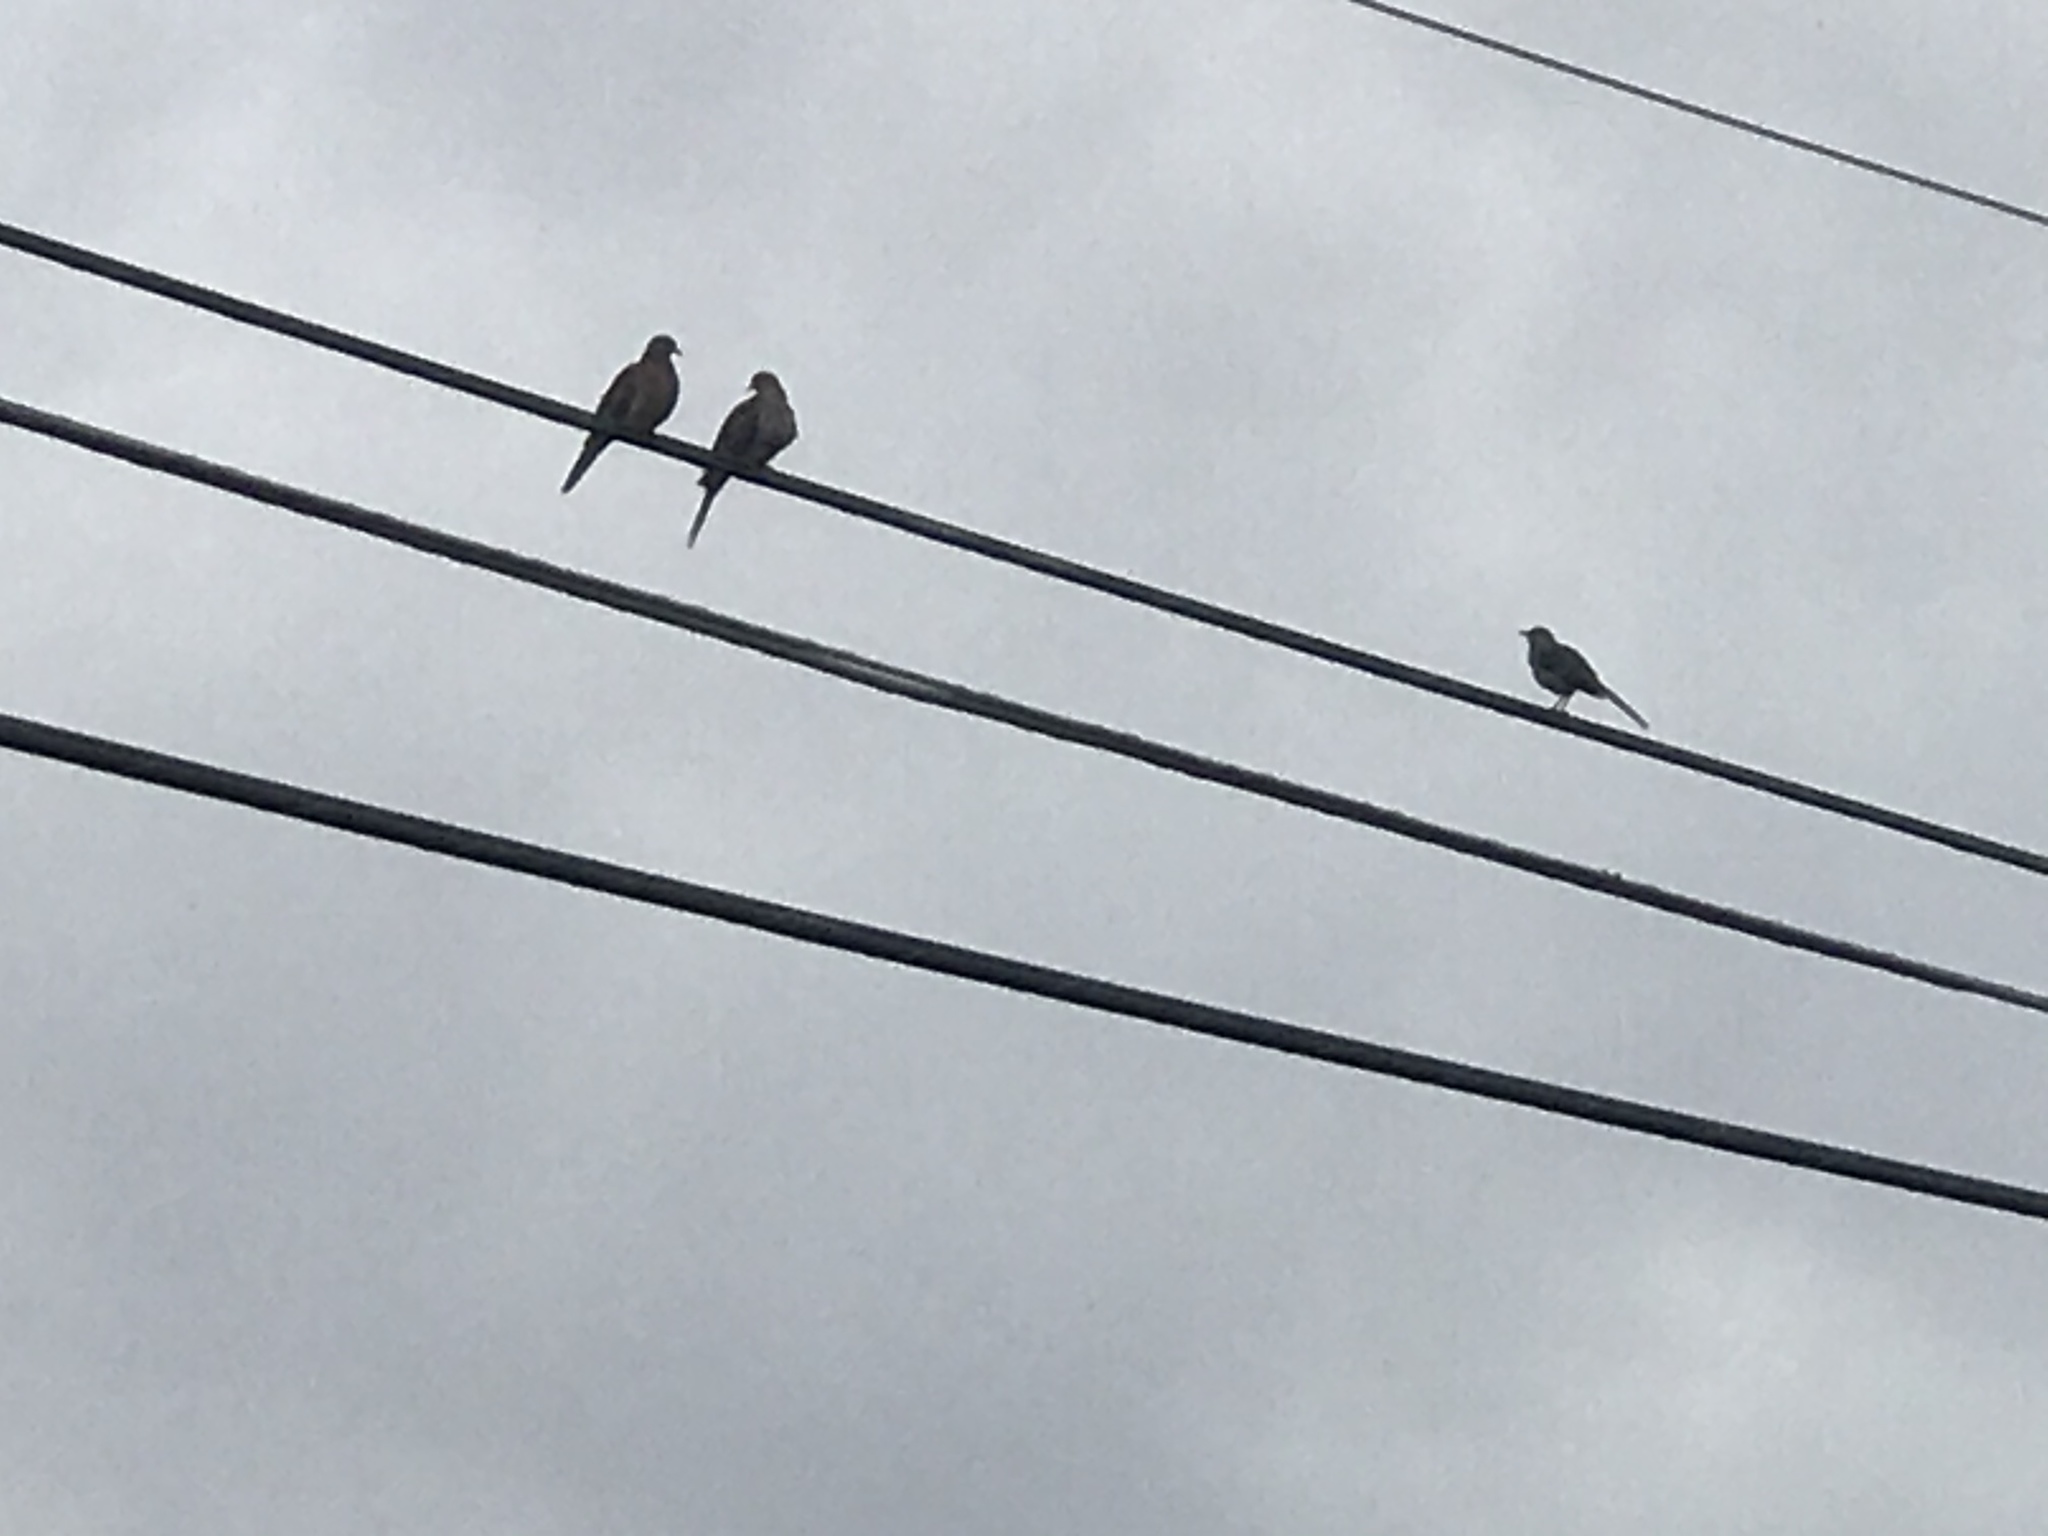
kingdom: Animalia
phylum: Chordata
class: Aves
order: Passeriformes
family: Mimidae
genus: Mimus
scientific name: Mimus polyglottos
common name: Northern mockingbird
